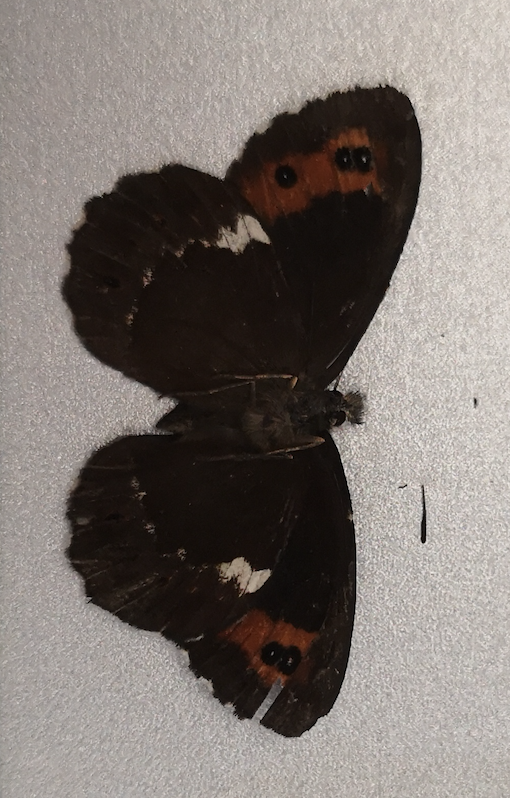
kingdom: Animalia
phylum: Arthropoda
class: Insecta
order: Lepidoptera
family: Nymphalidae
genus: Erebia
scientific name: Erebia ligea
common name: Arran brown
